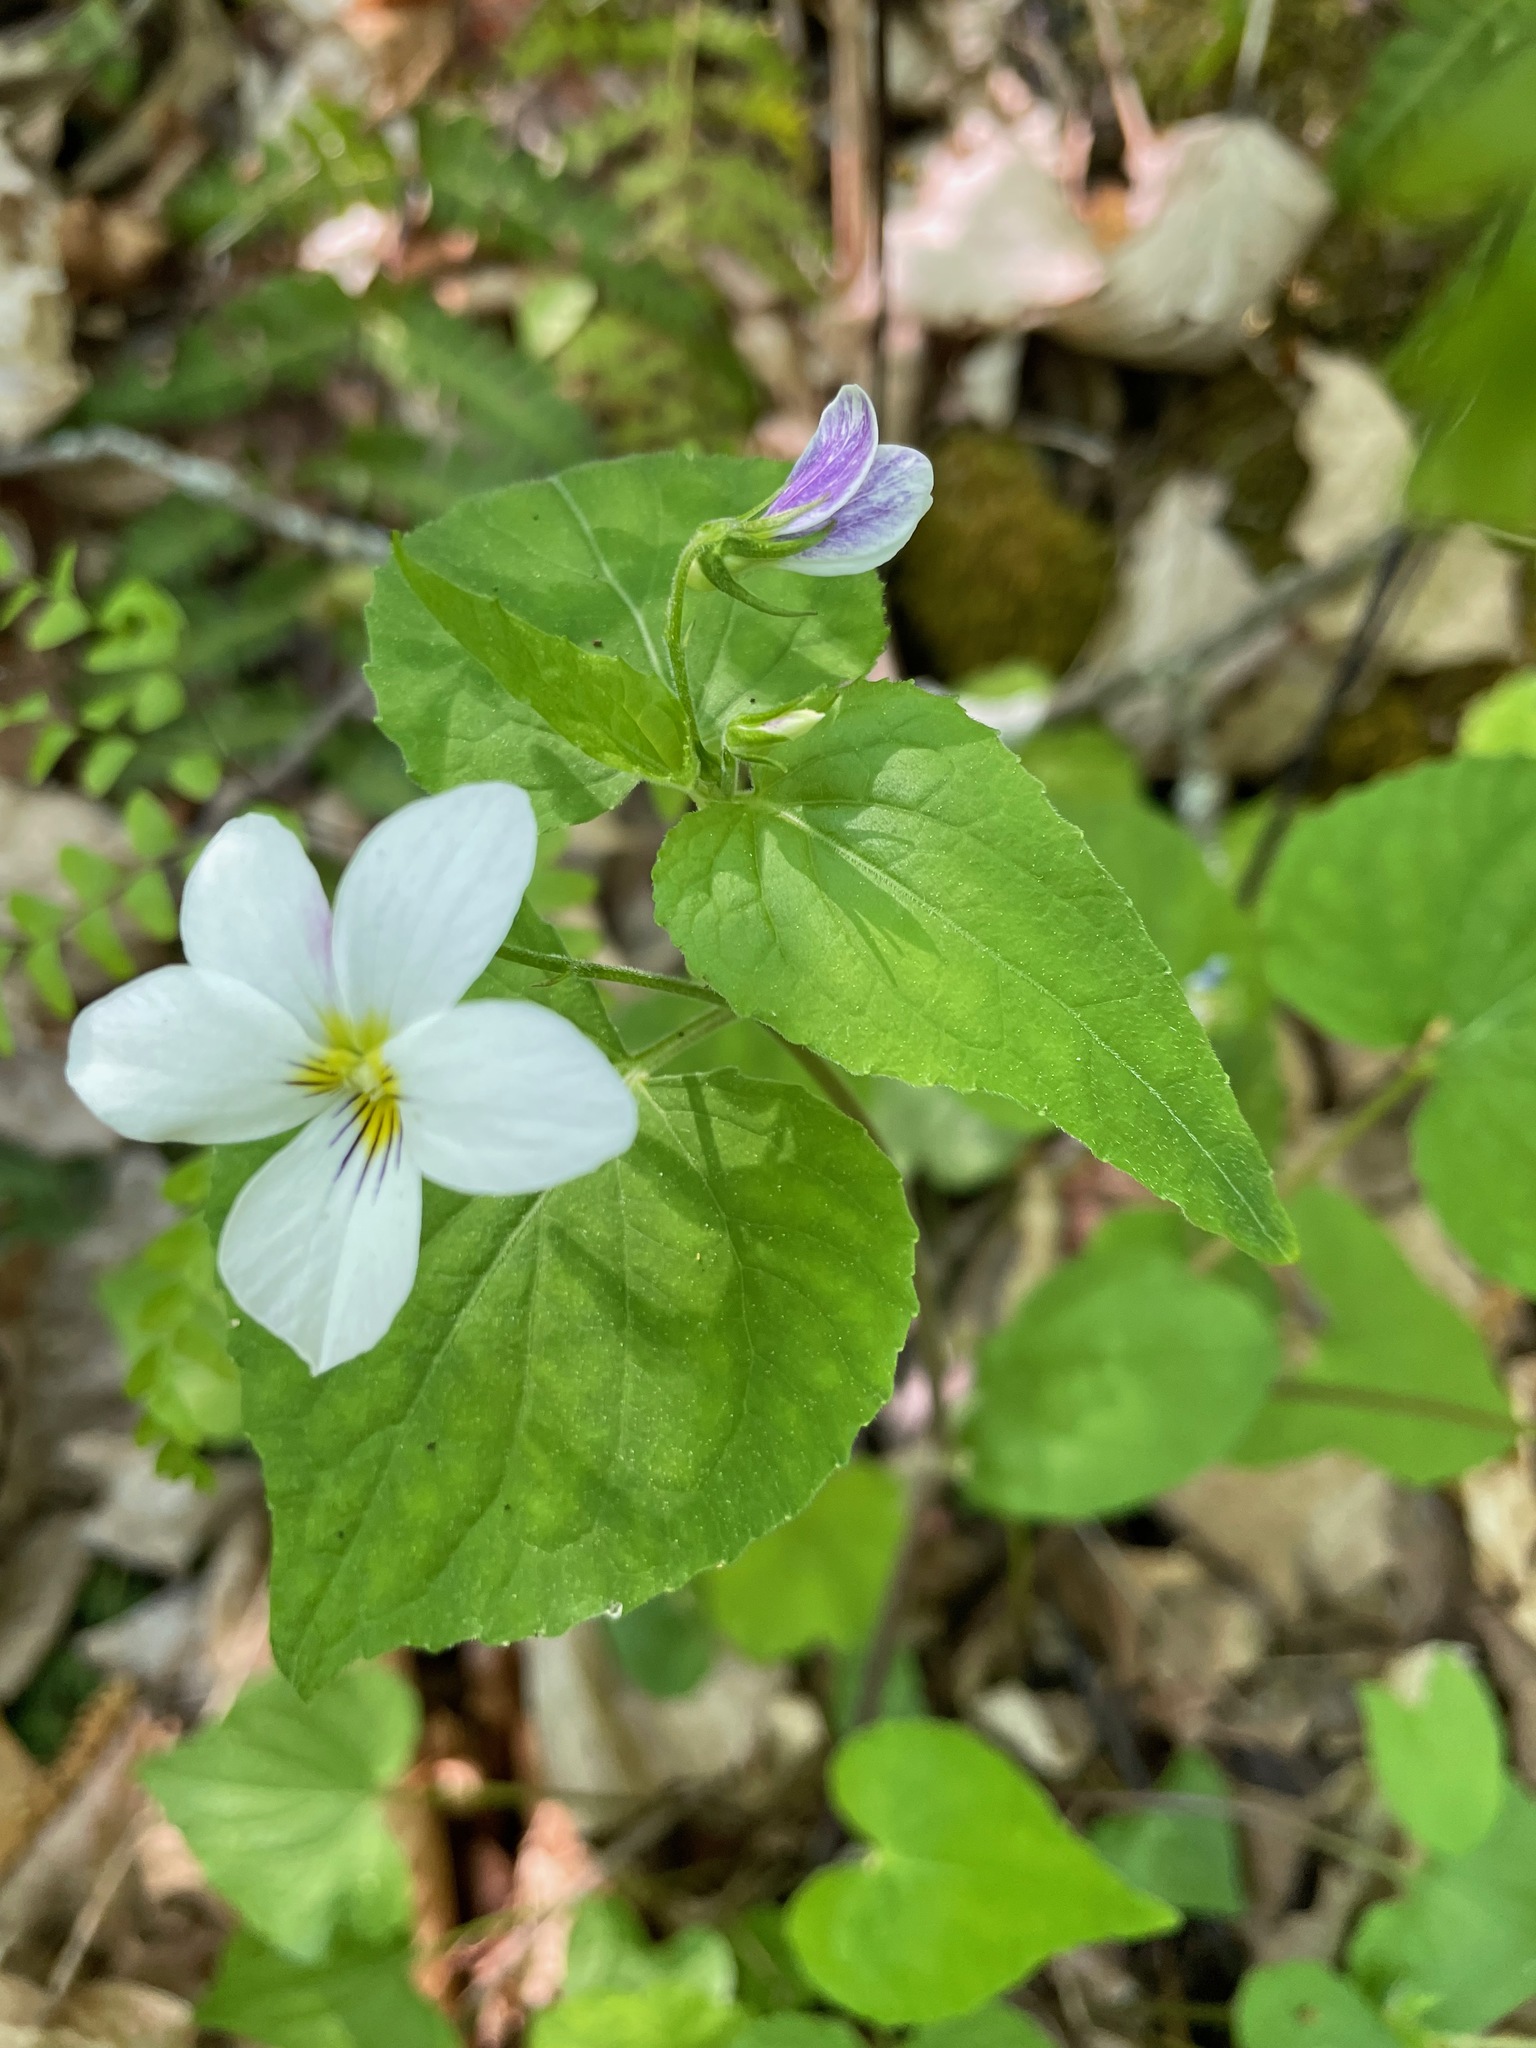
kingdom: Plantae
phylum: Tracheophyta
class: Magnoliopsida
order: Malpighiales
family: Violaceae
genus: Viola
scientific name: Viola canadensis
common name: Canada violet
